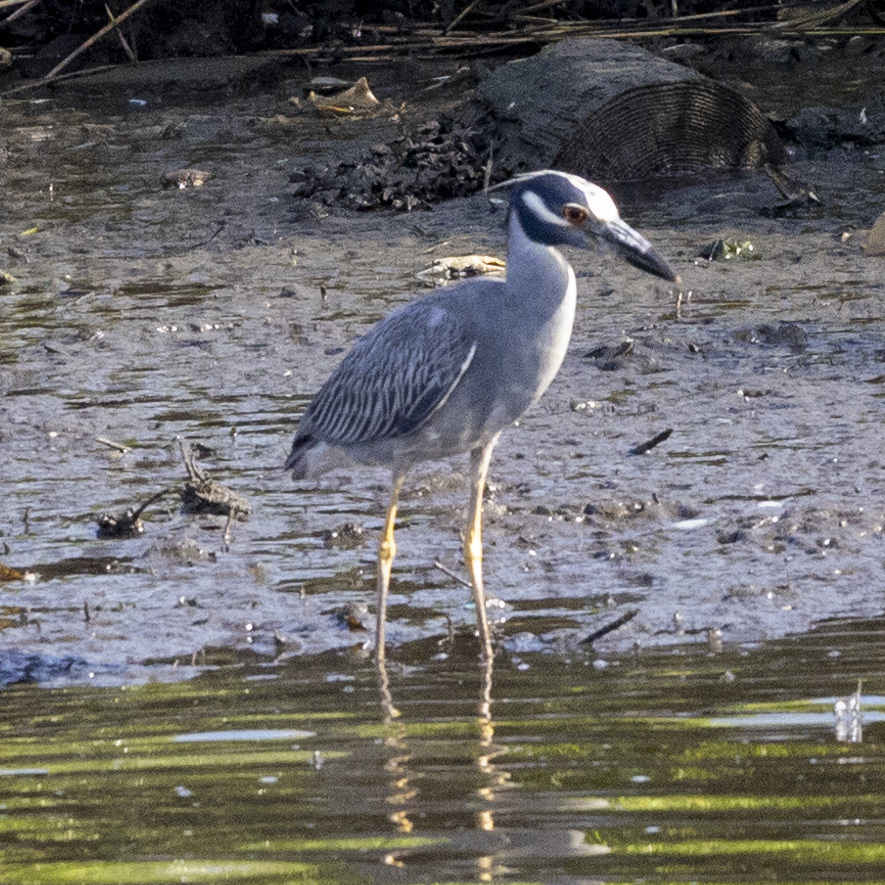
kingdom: Animalia
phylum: Chordata
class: Aves
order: Pelecaniformes
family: Ardeidae
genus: Nyctanassa
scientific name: Nyctanassa violacea
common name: Yellow-crowned night heron
